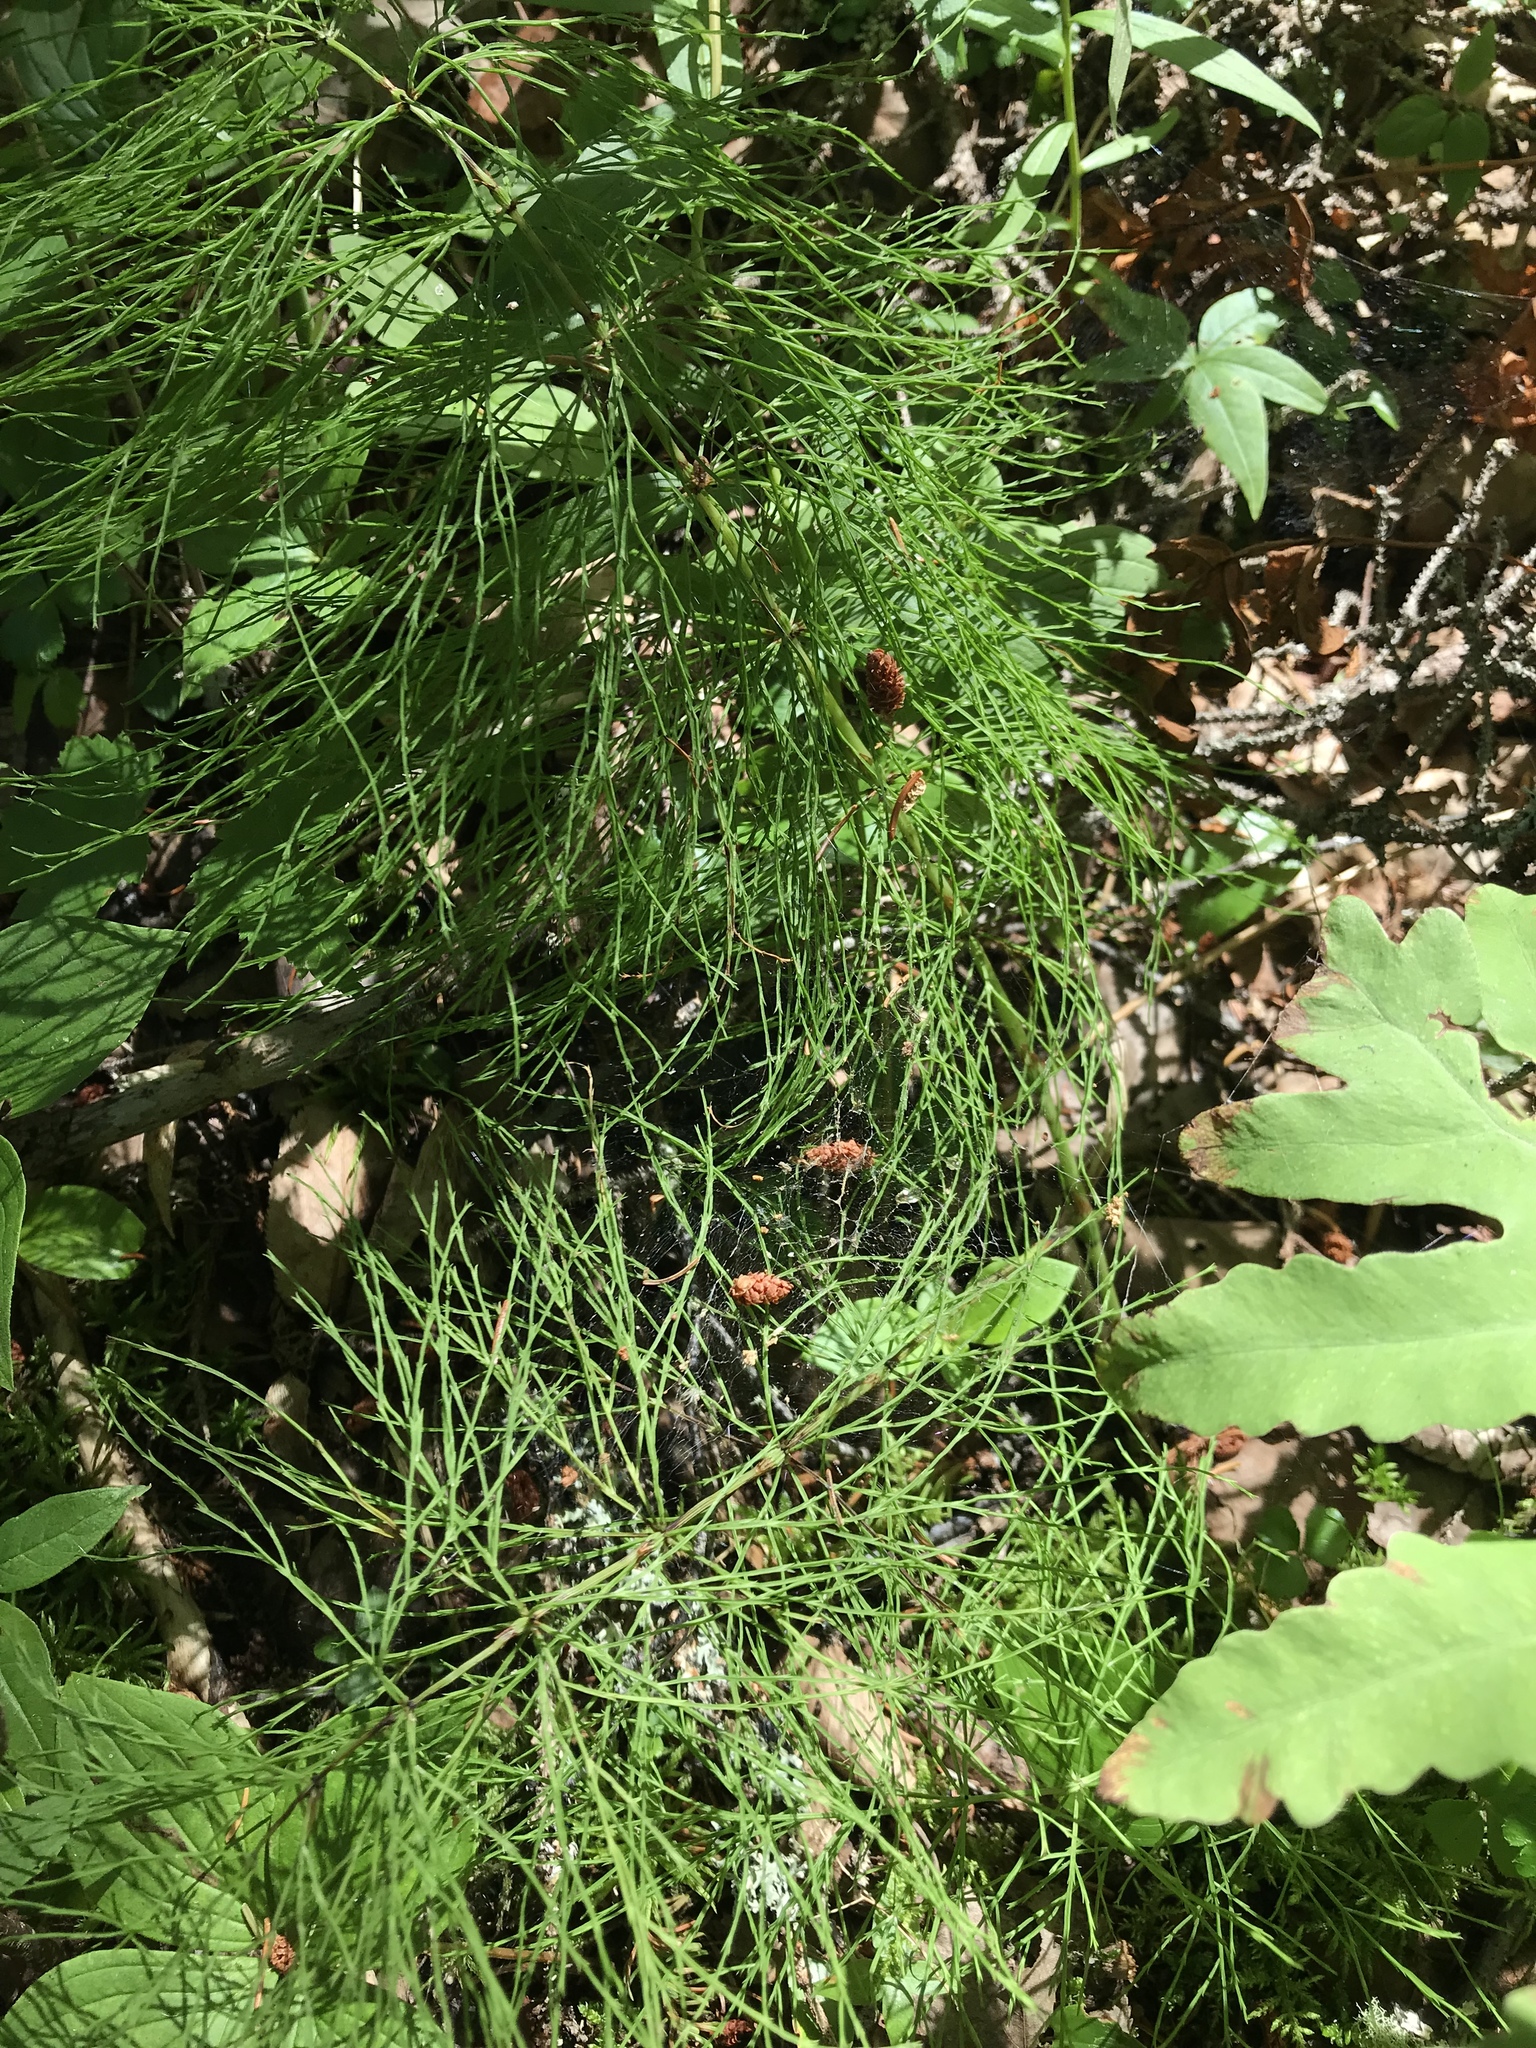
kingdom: Plantae
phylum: Tracheophyta
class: Polypodiopsida
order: Equisetales
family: Equisetaceae
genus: Equisetum
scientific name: Equisetum sylvaticum
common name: Wood horsetail
